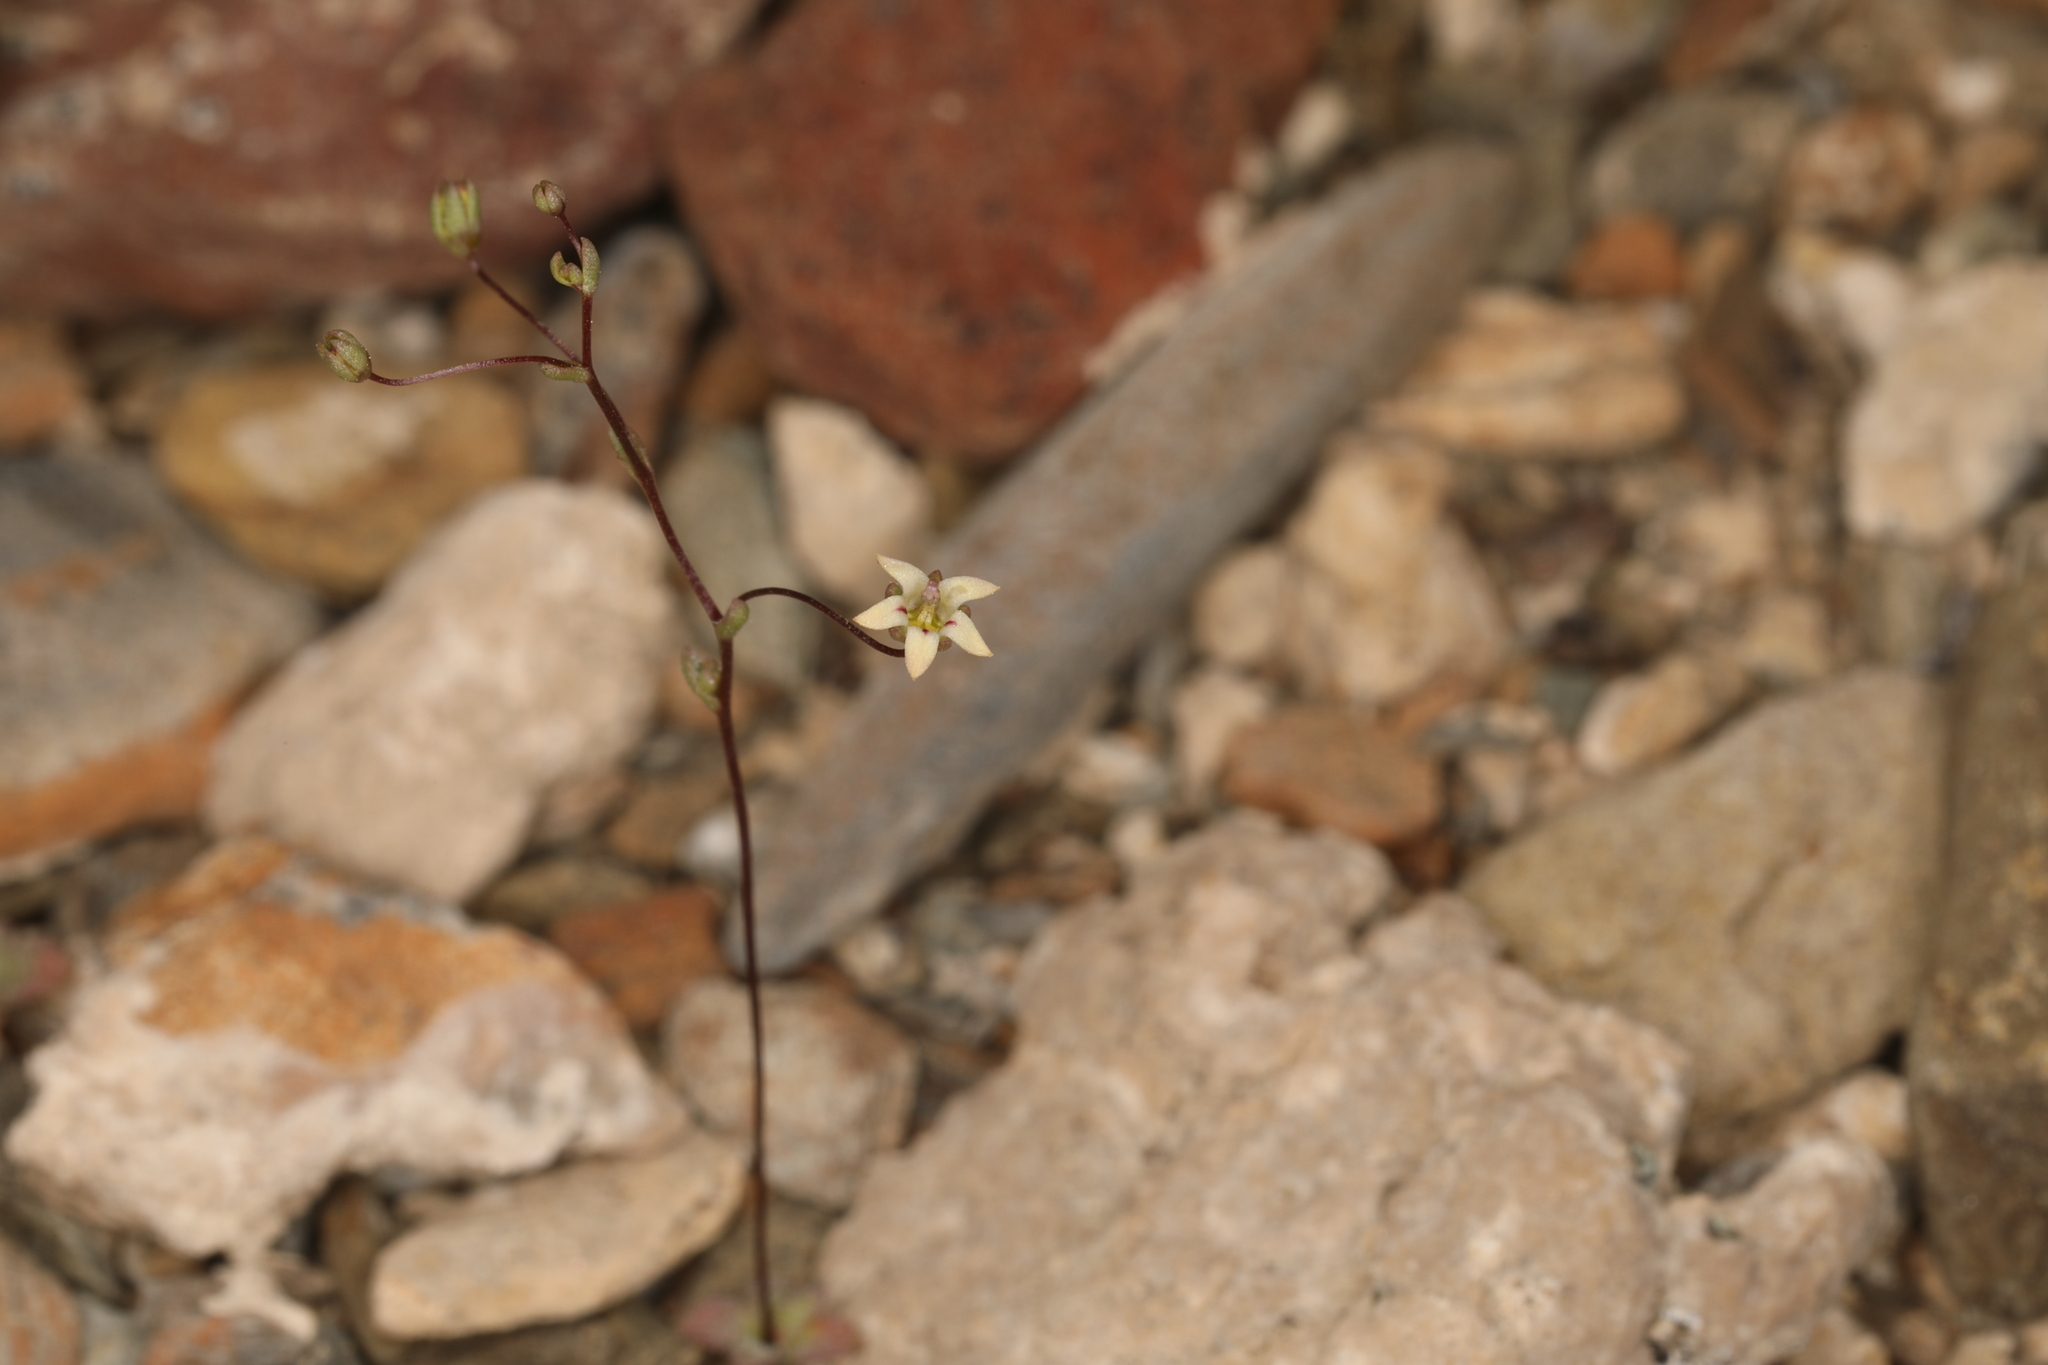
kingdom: Plantae
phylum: Tracheophyta
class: Magnoliopsida
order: Asterales
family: Campanulaceae
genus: Nemacladus
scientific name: Nemacladus inyoensis
